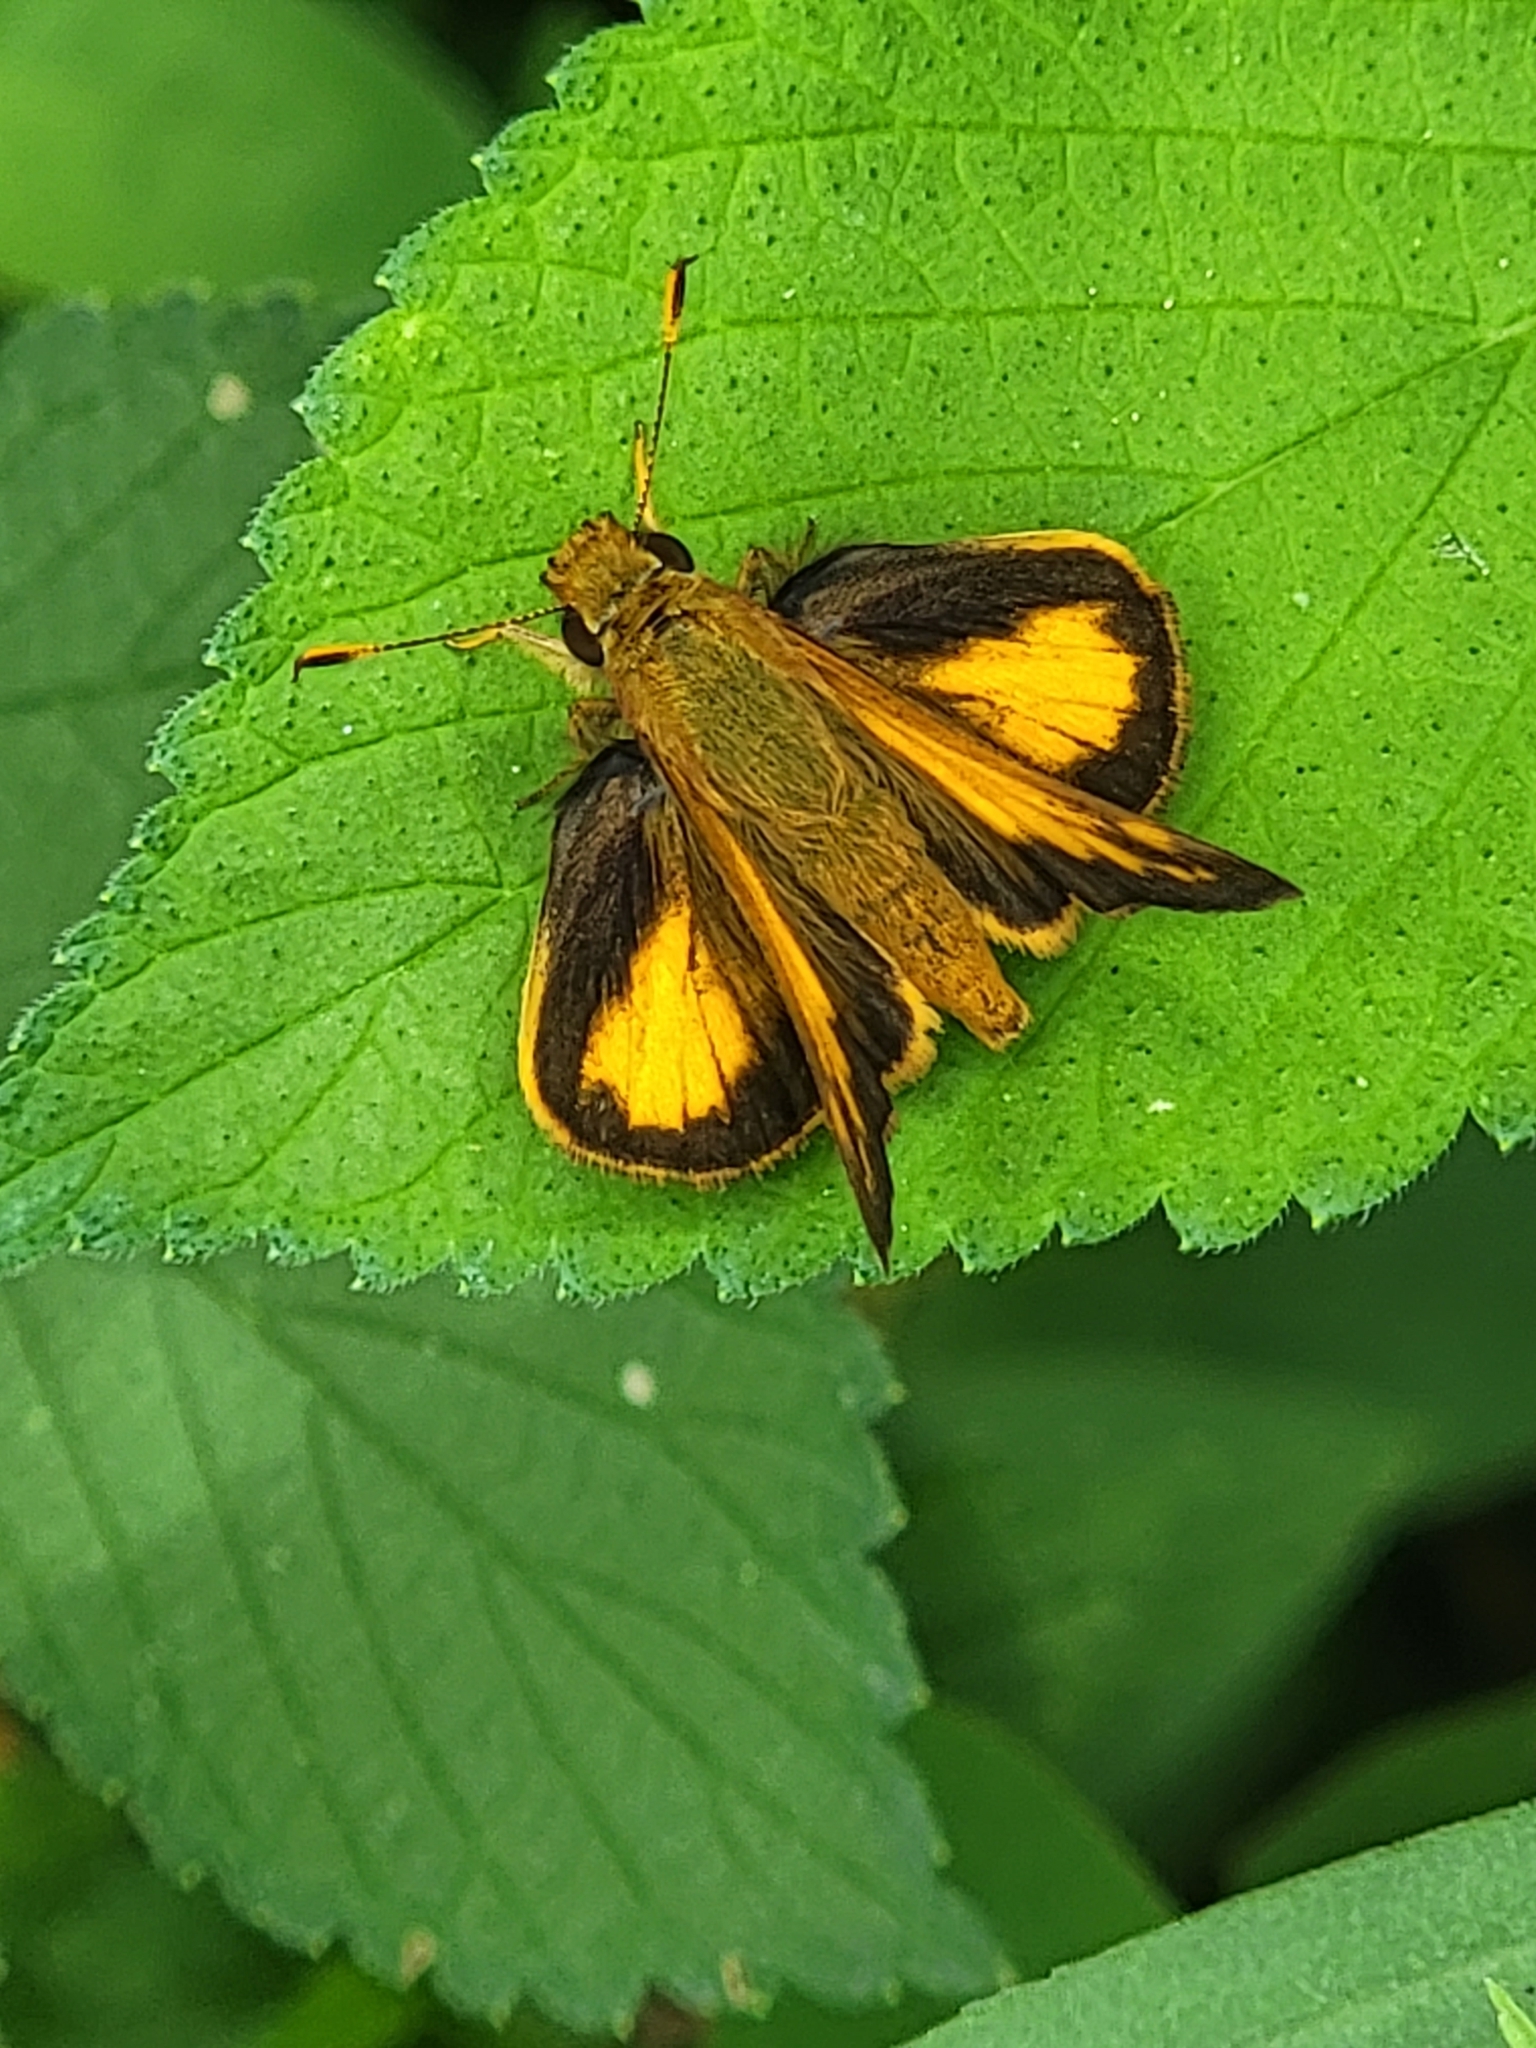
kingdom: Animalia
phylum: Arthropoda
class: Insecta
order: Lepidoptera
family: Hesperiidae
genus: Lon
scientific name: Lon zabulon
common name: Zabulon skipper
